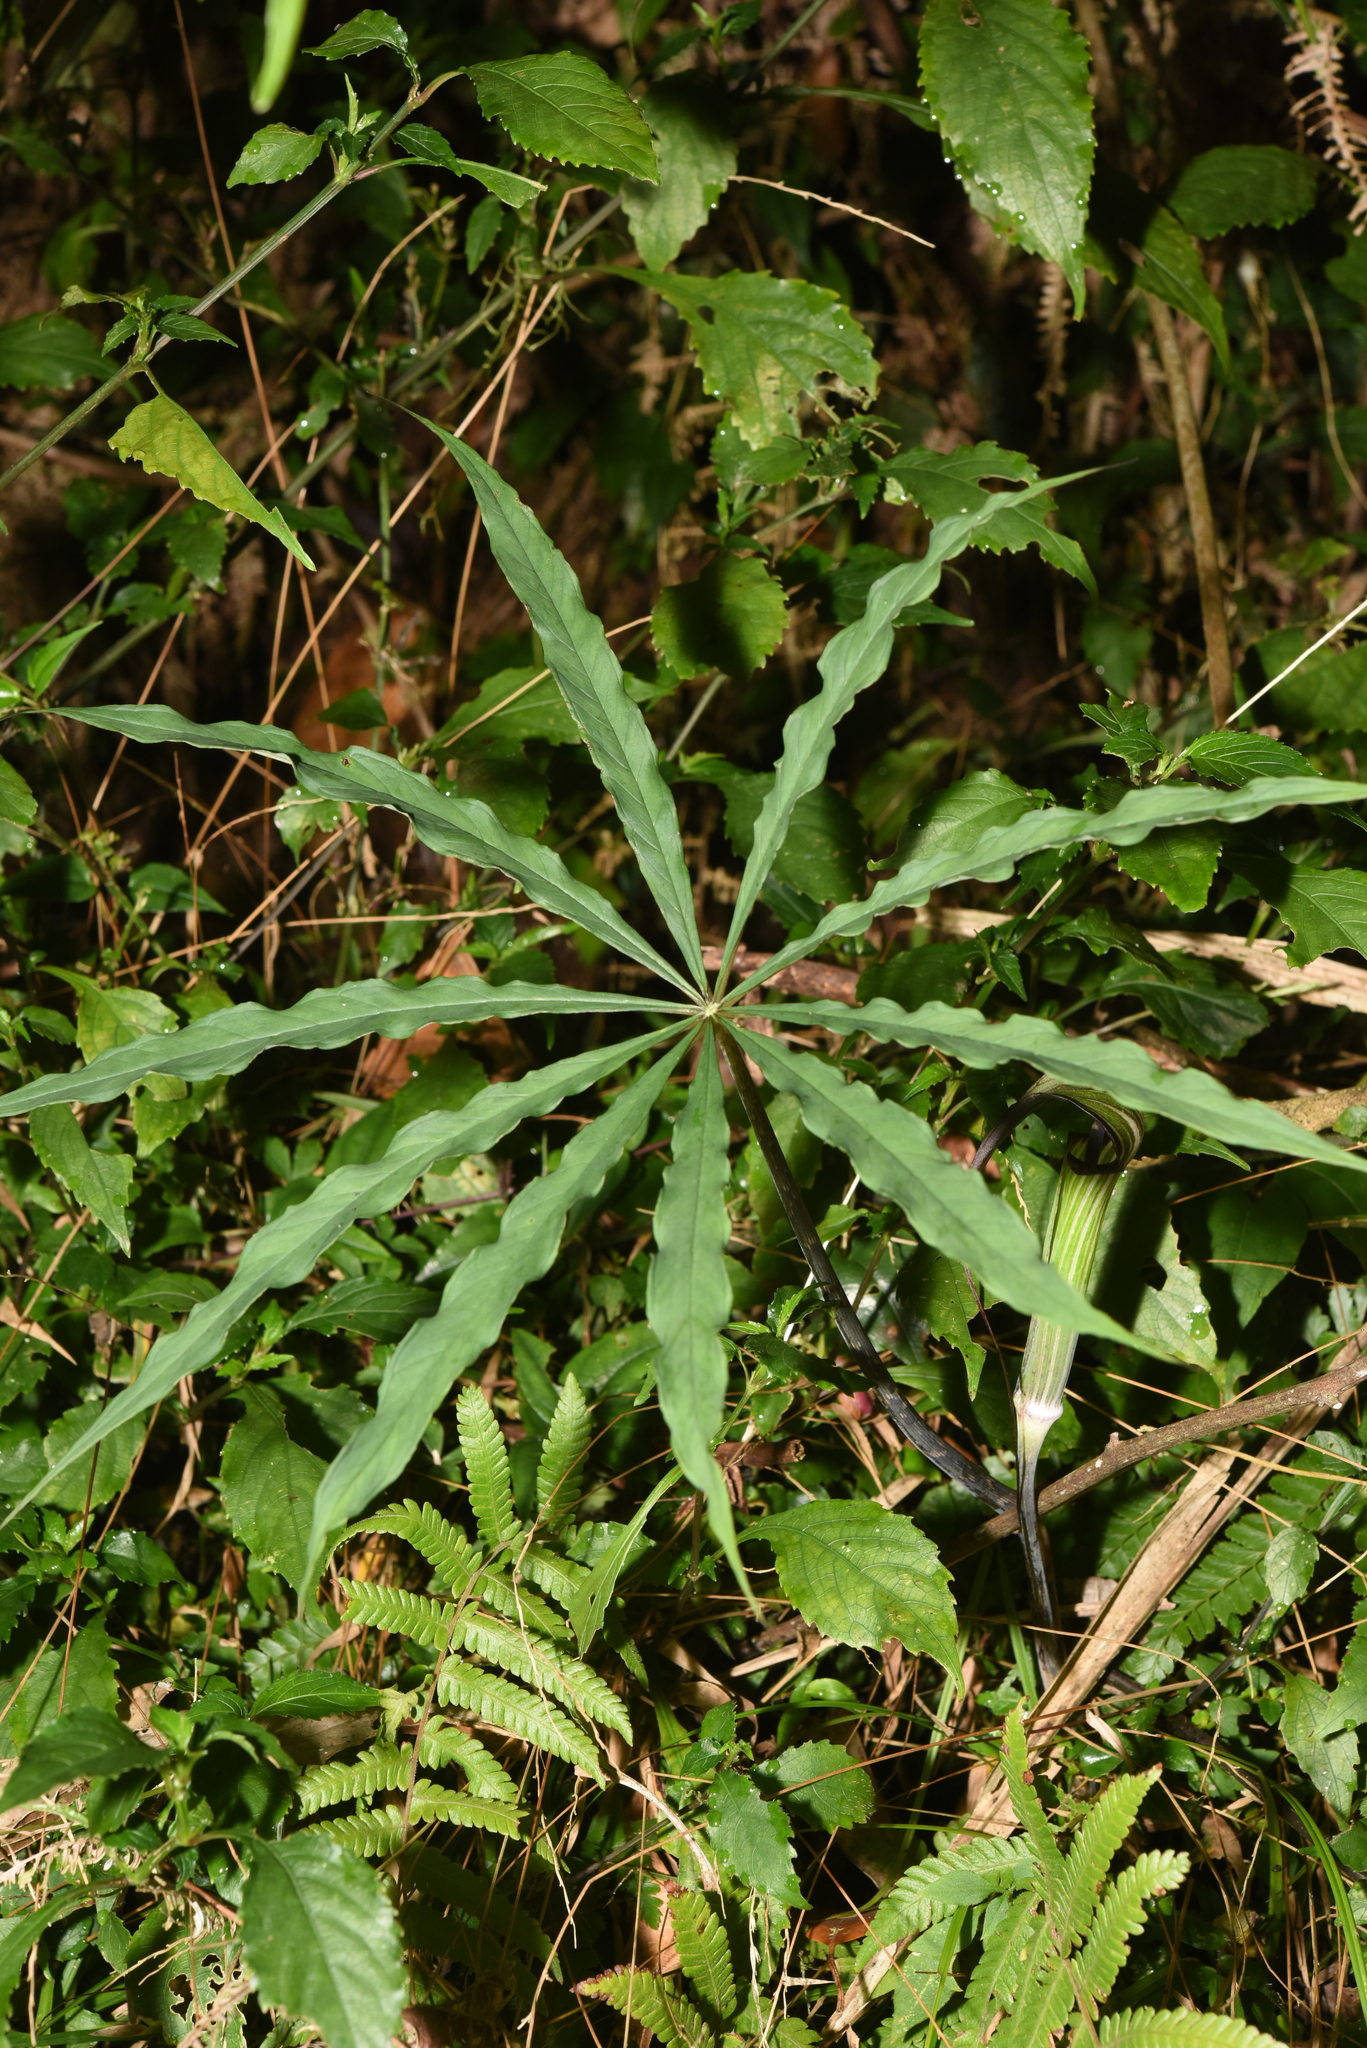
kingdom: Plantae
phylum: Tracheophyta
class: Liliopsida
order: Alismatales
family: Araceae
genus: Arisaema
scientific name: Arisaema consanguineum
